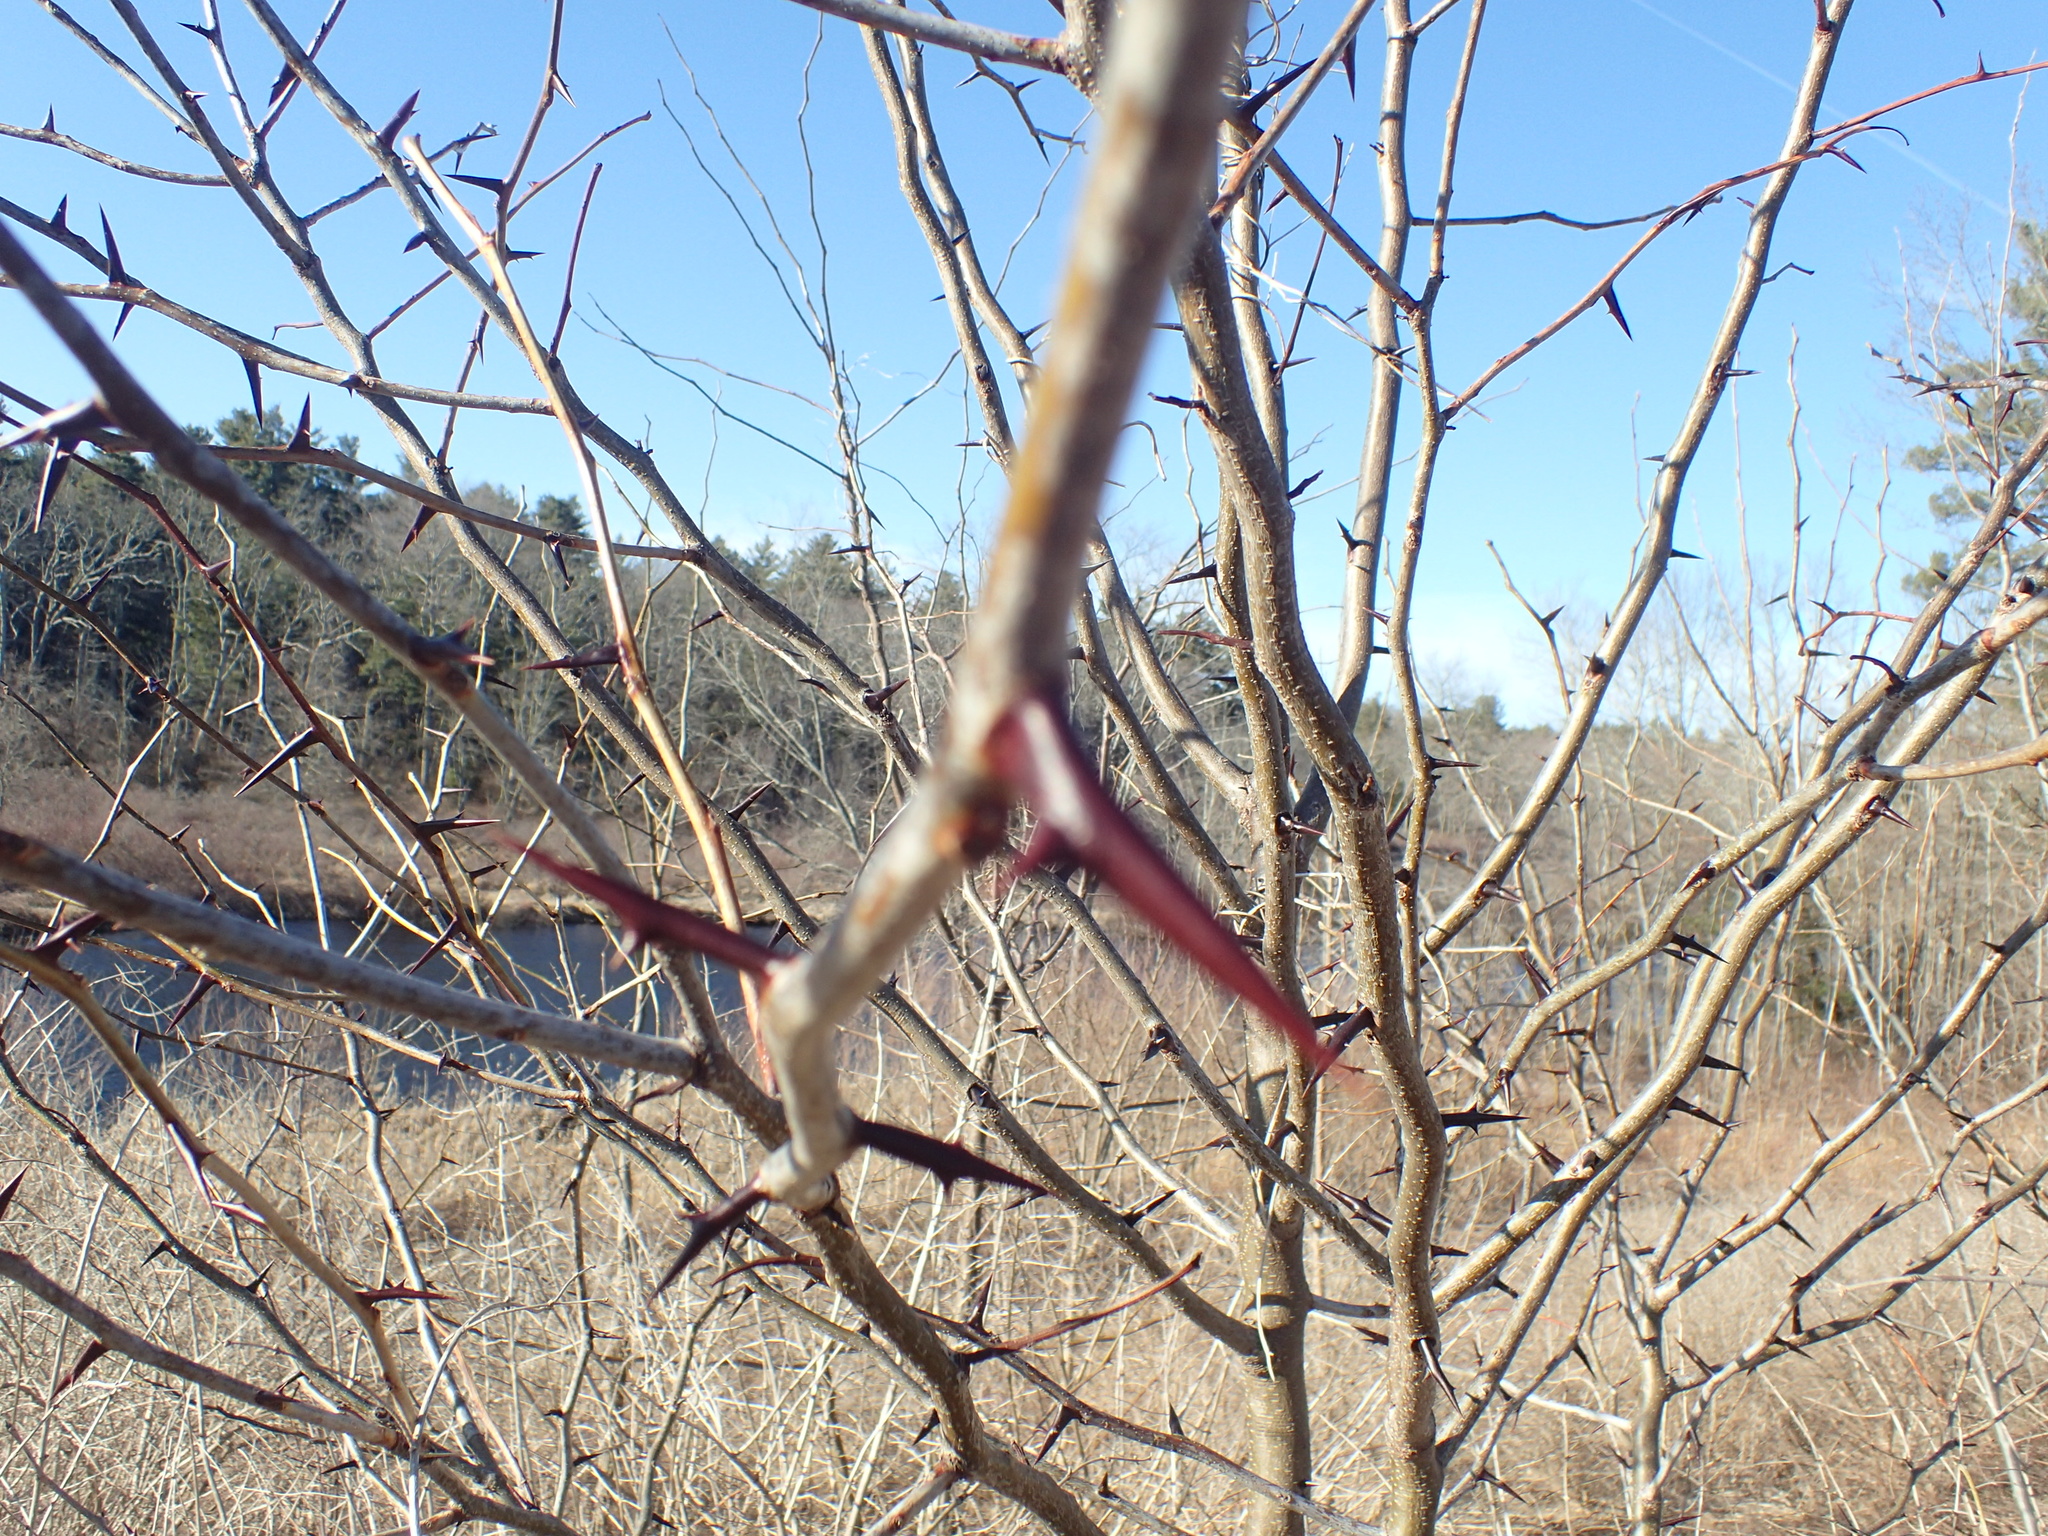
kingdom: Plantae
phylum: Tracheophyta
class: Magnoliopsida
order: Fabales
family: Fabaceae
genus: Gleditsia
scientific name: Gleditsia triacanthos
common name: Common honeylocust
